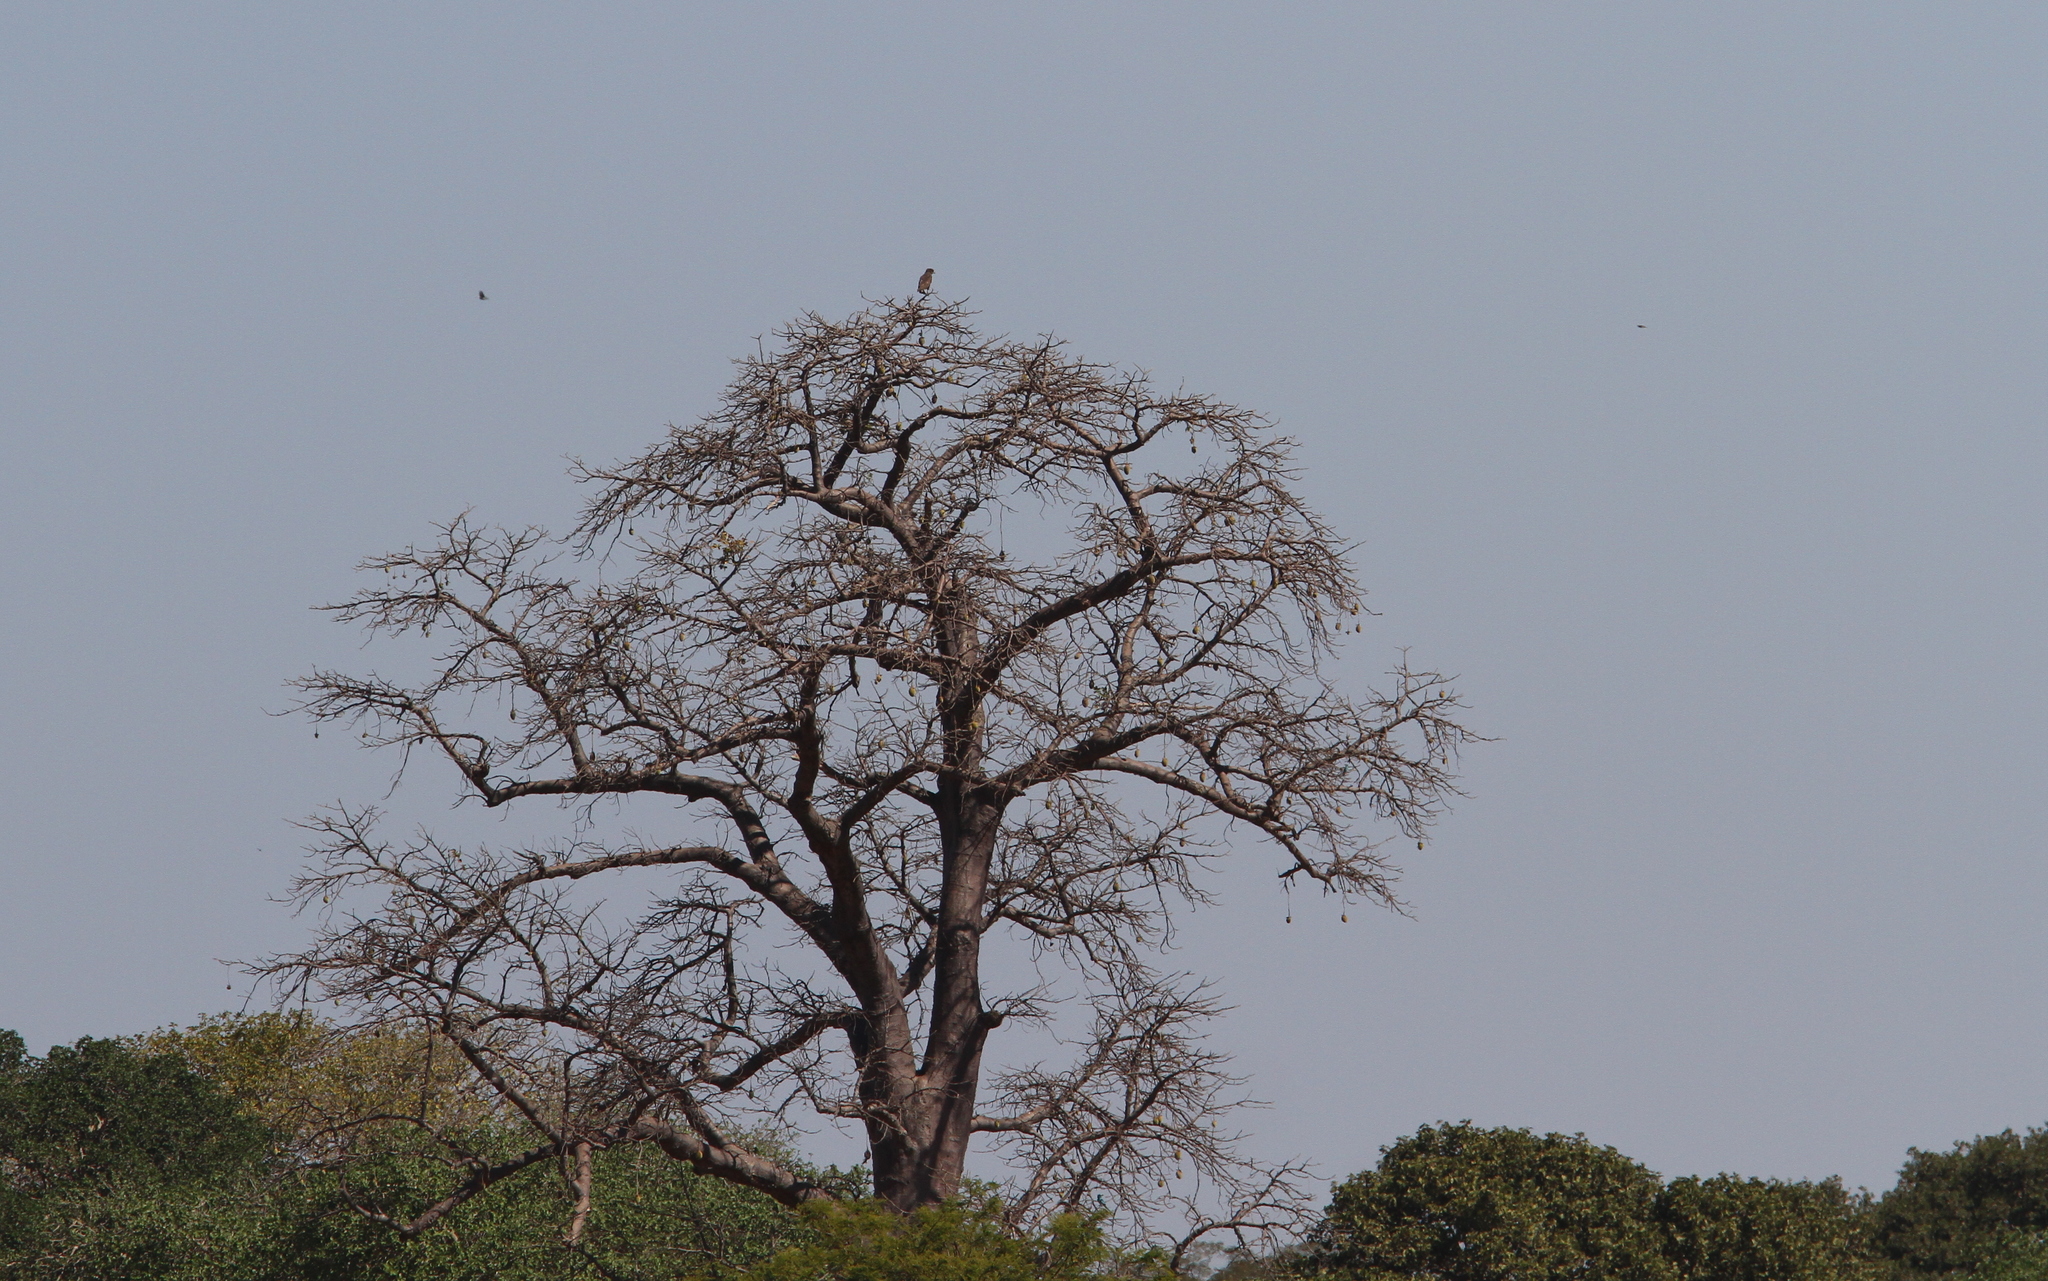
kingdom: Animalia
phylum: Chordata
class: Aves
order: Accipitriformes
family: Accipitridae
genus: Circaetus
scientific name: Circaetus cinerascens
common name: Western banded snake eagle
